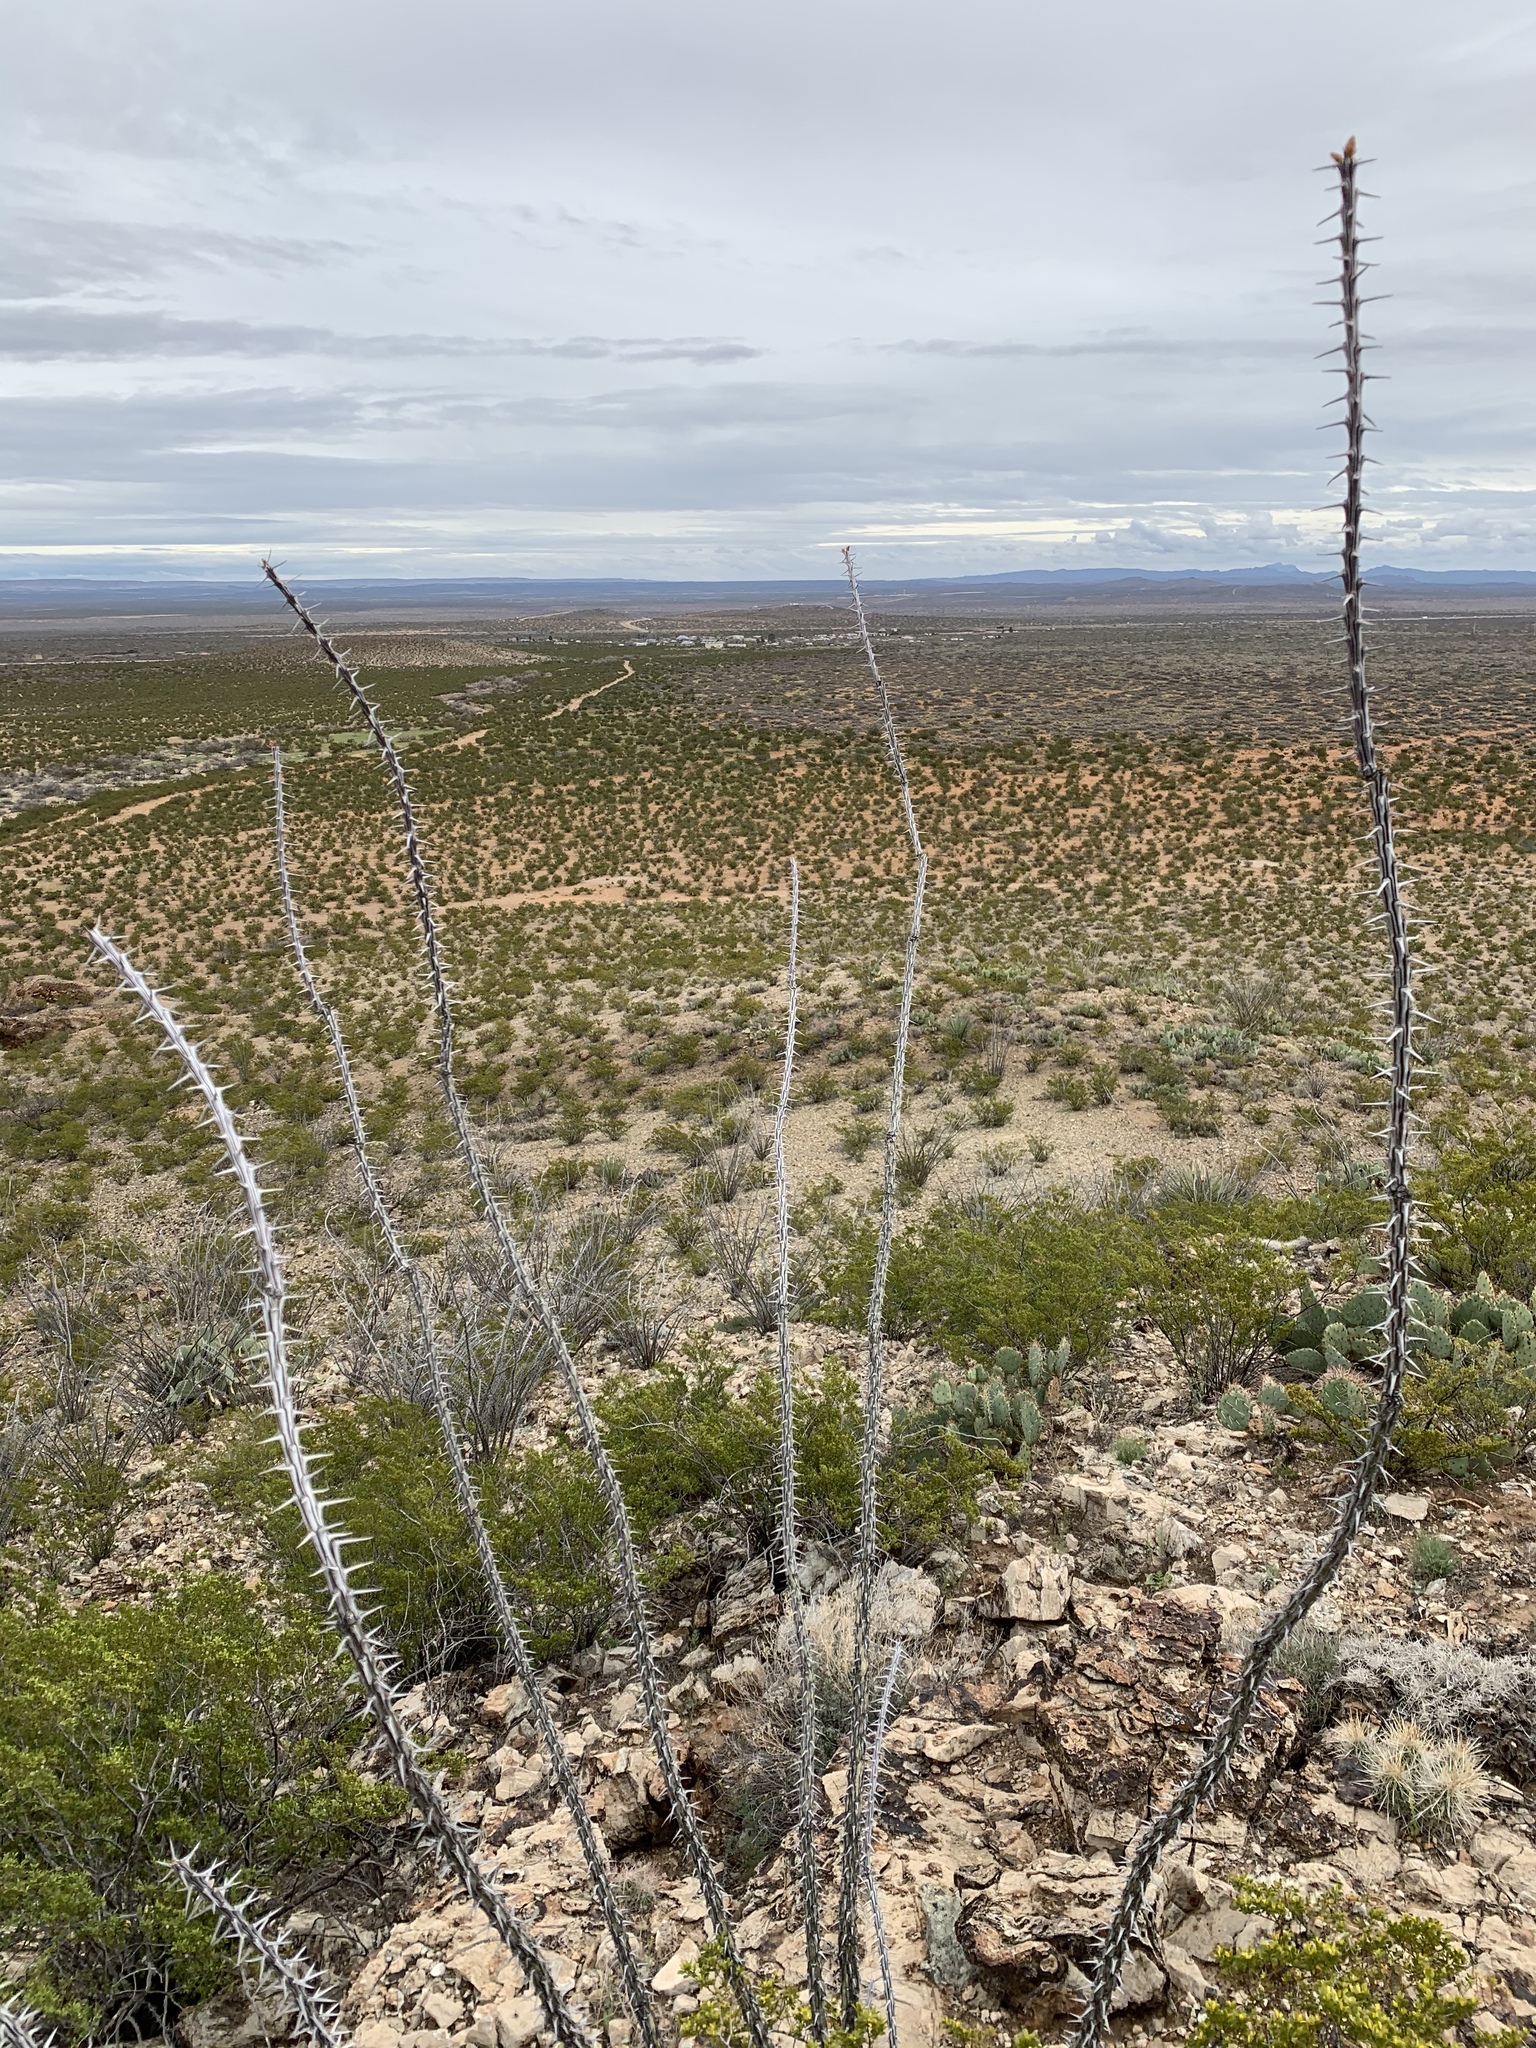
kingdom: Plantae
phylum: Tracheophyta
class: Magnoliopsida
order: Ericales
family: Fouquieriaceae
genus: Fouquieria
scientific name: Fouquieria splendens
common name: Vine-cactus
